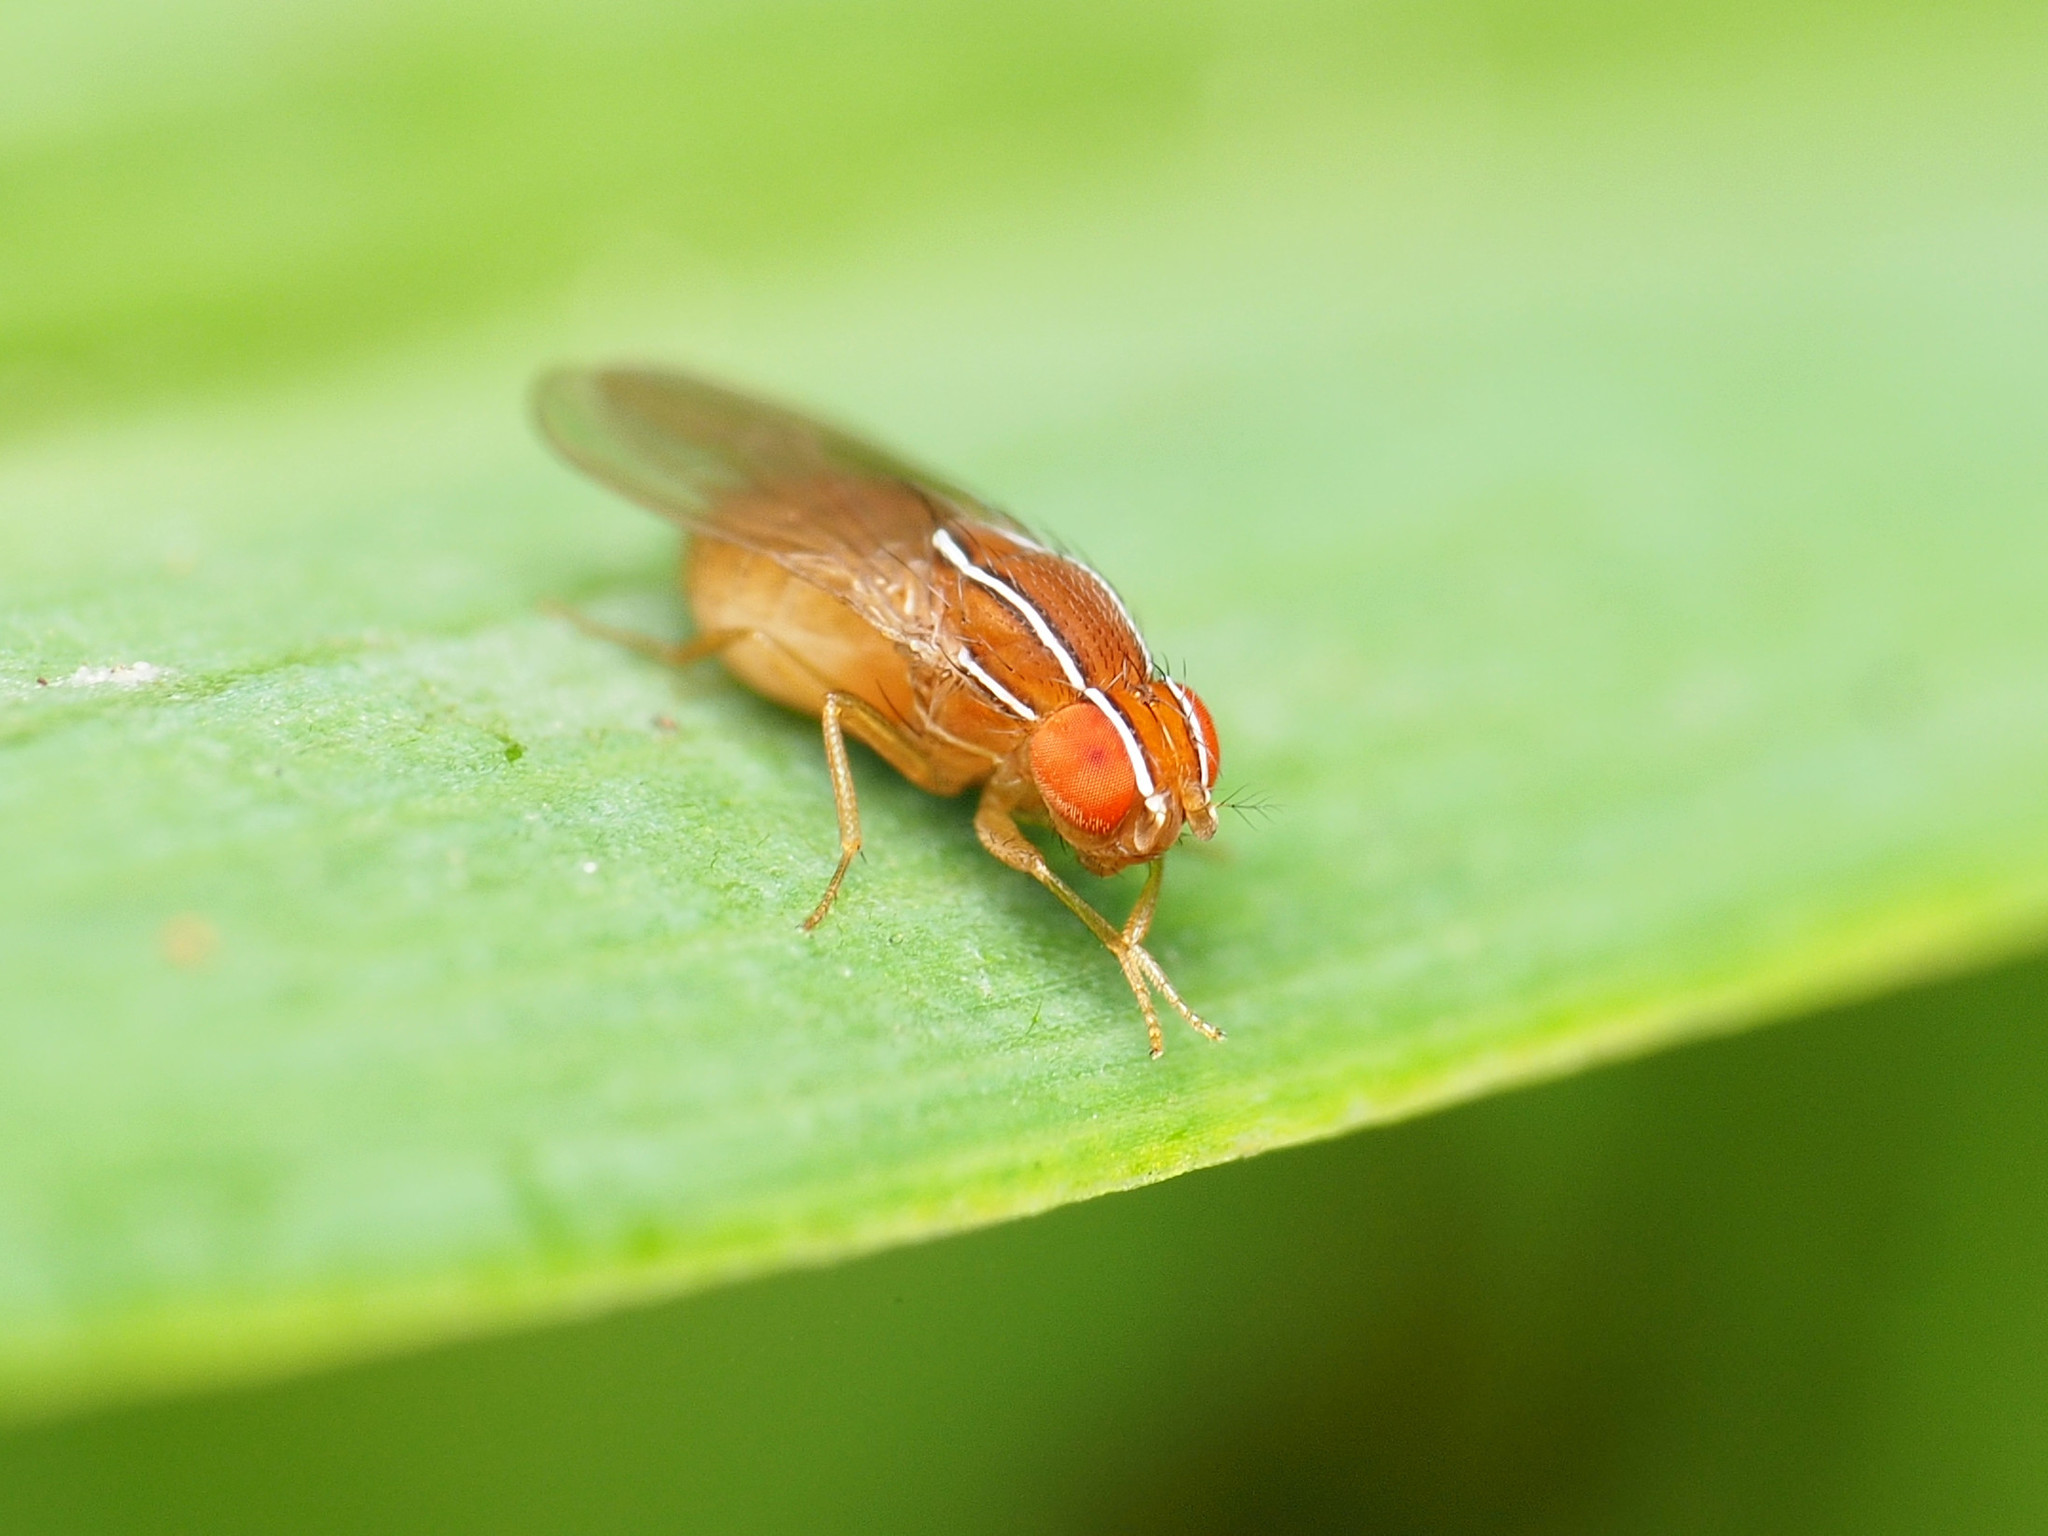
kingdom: Animalia
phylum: Arthropoda
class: Insecta
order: Diptera
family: Drosophilidae
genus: Zaprionus
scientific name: Zaprionus indianus
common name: African fig fly
